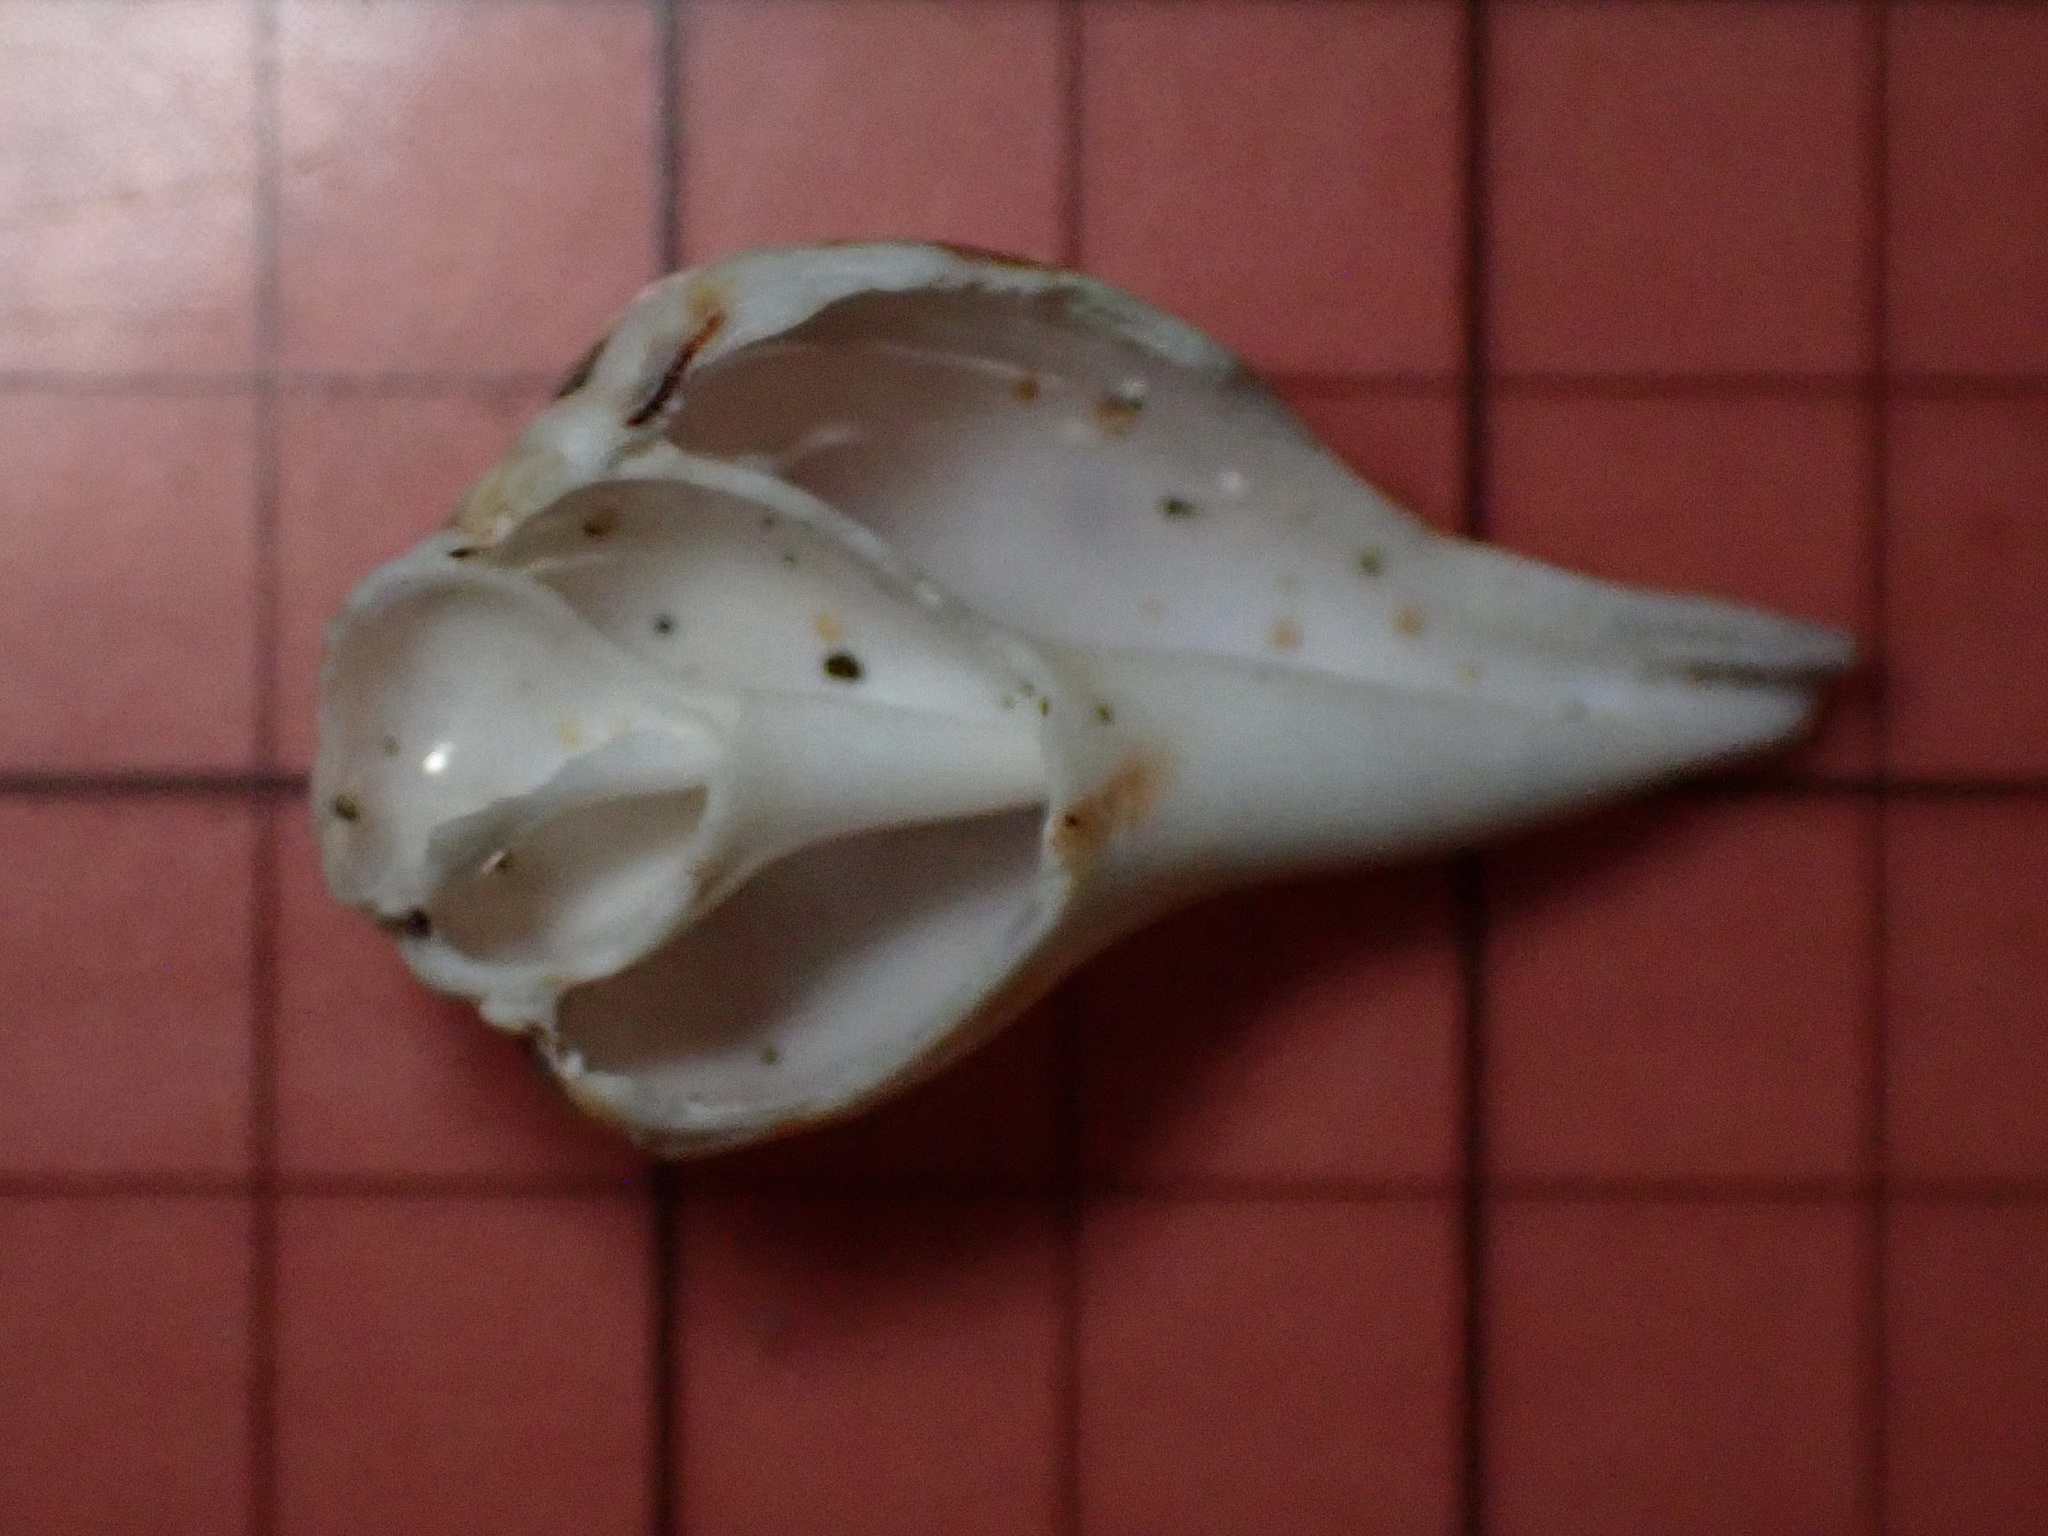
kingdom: Animalia
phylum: Mollusca
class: Gastropoda
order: Littorinimorpha
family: Strombidae
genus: Maculastrombus
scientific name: Maculastrombus maculatus
